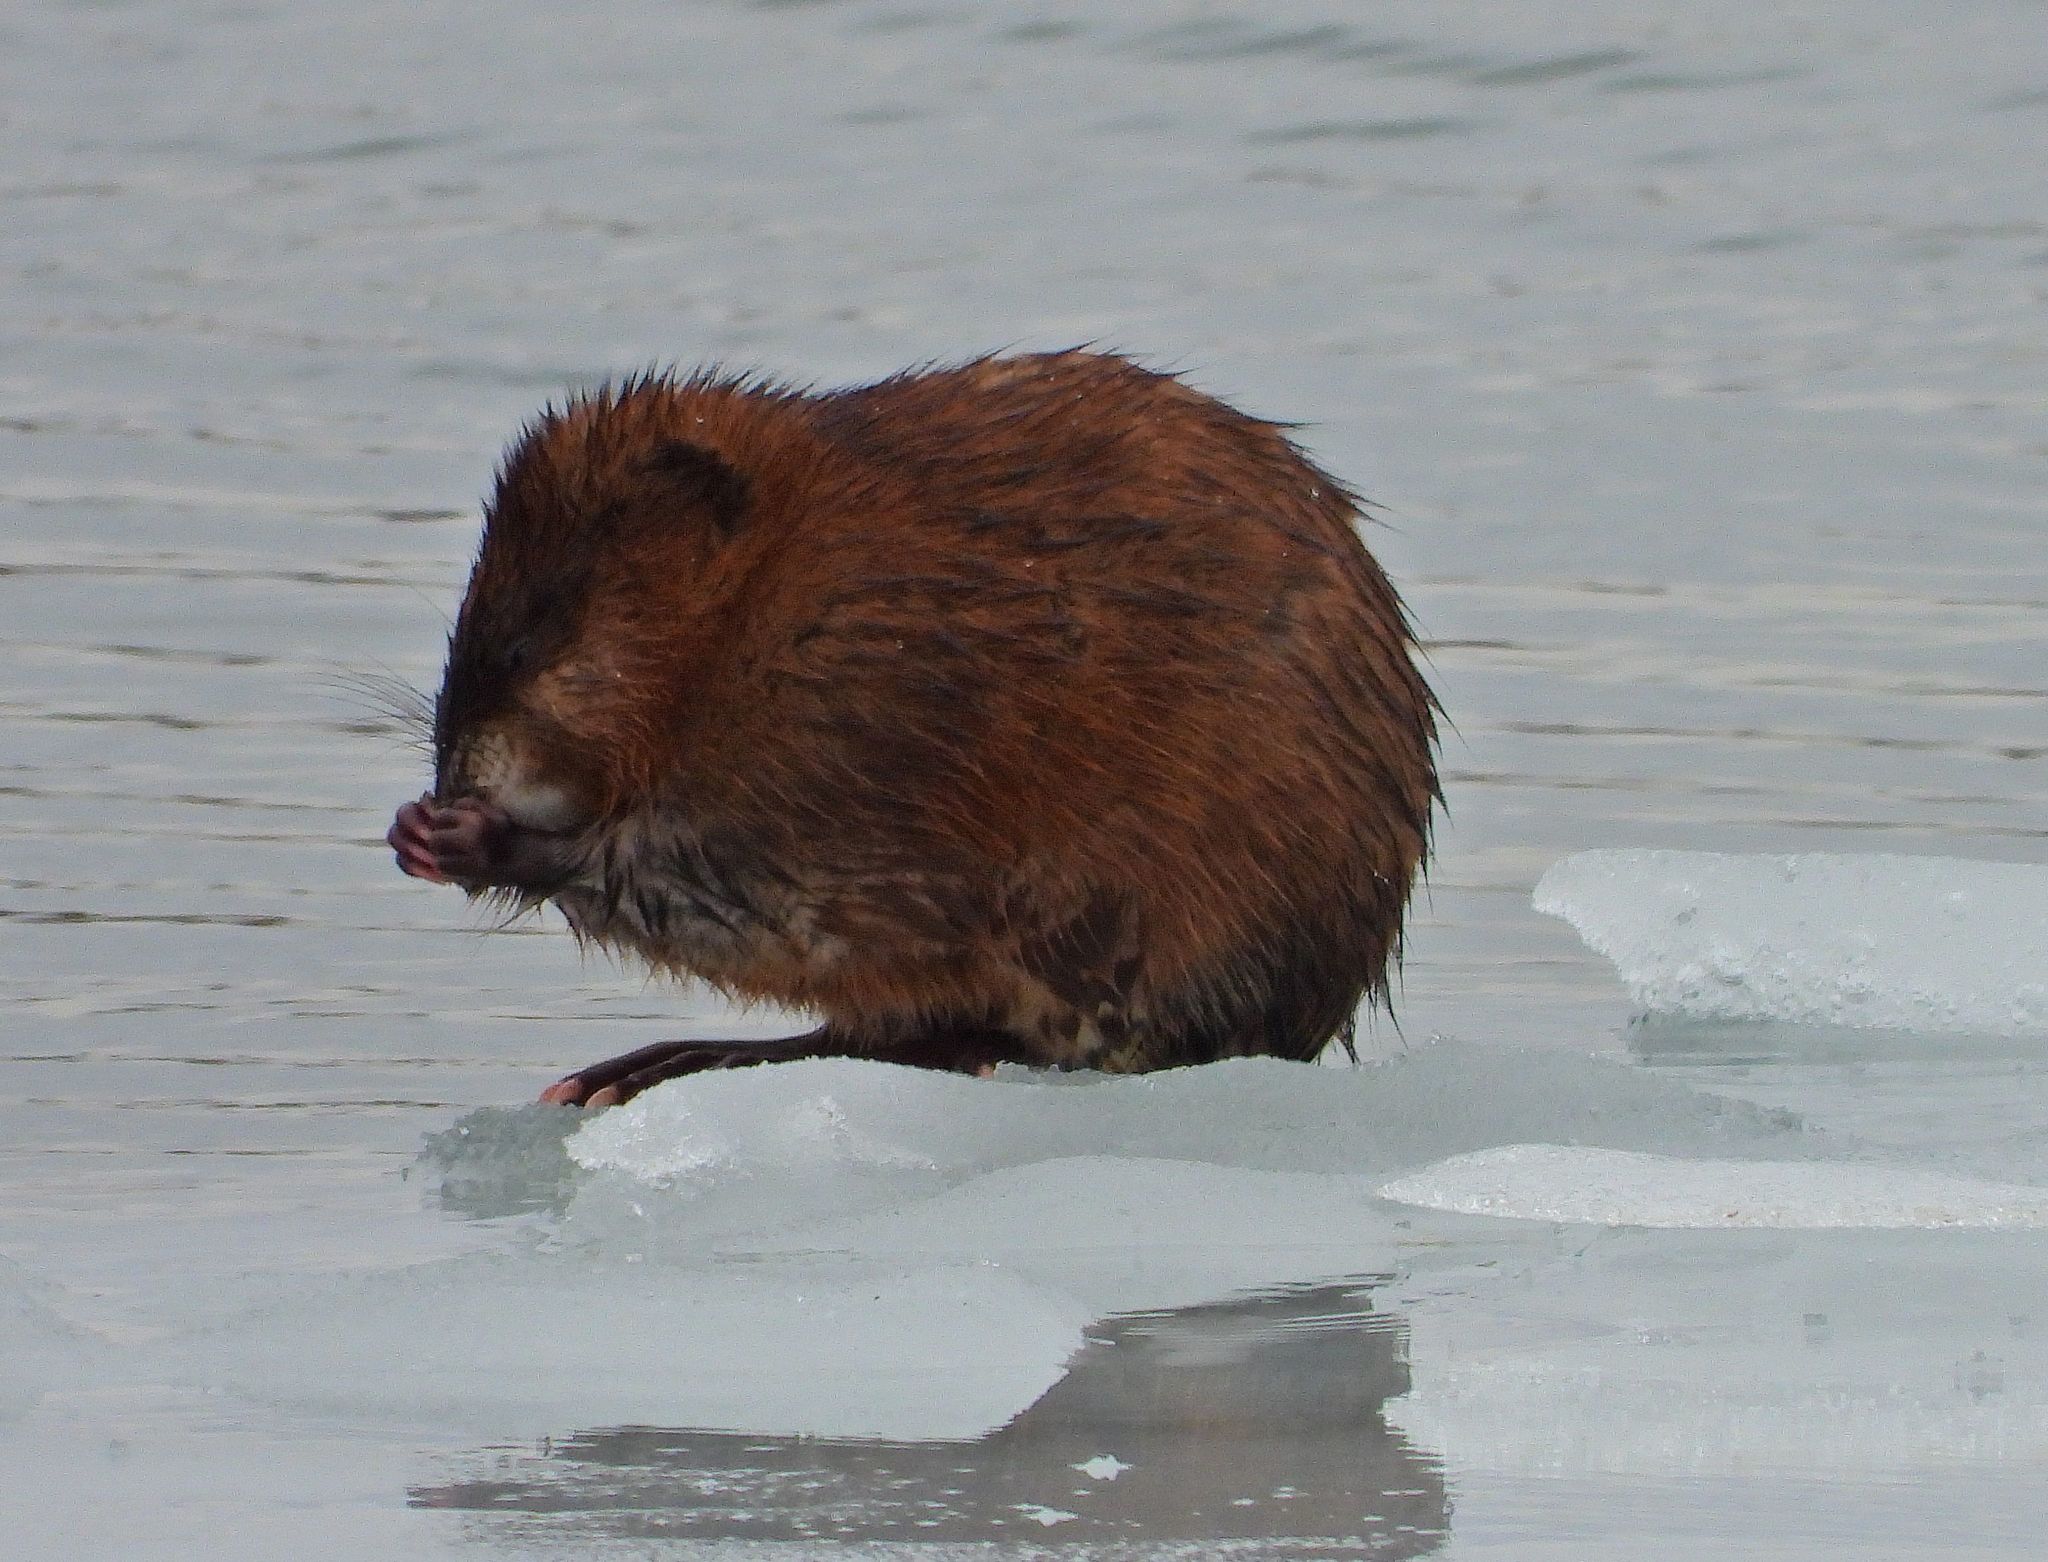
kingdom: Animalia
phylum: Chordata
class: Mammalia
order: Rodentia
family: Cricetidae
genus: Ondatra
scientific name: Ondatra zibethicus
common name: Muskrat
